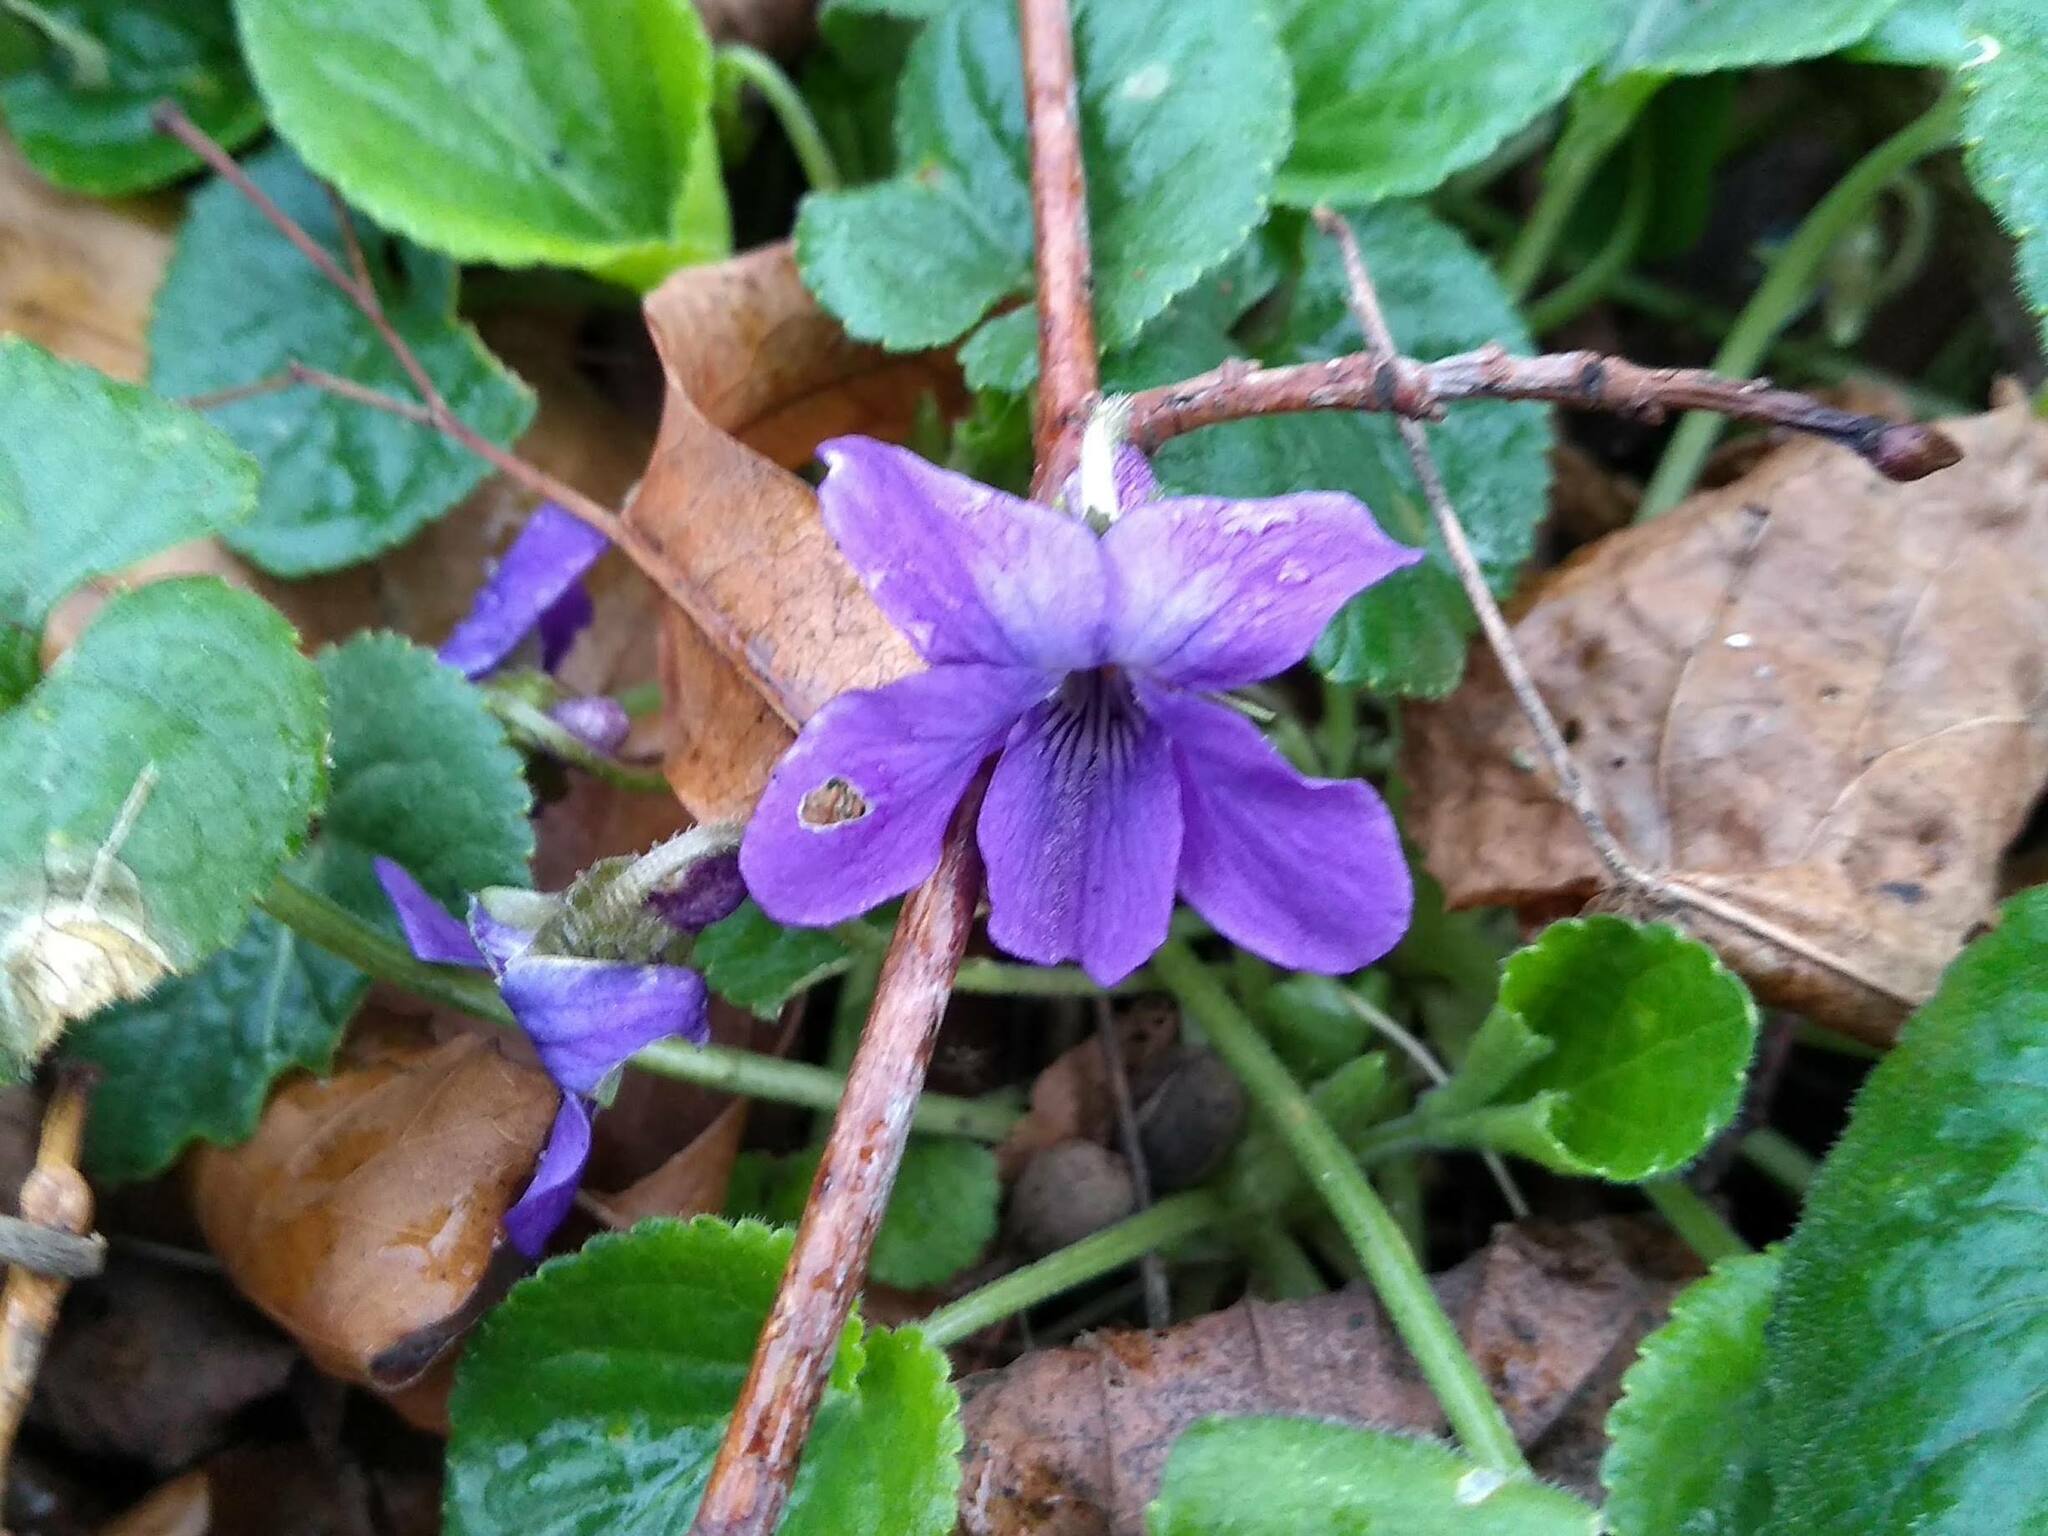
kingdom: Plantae
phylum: Tracheophyta
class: Magnoliopsida
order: Malpighiales
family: Violaceae
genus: Viola
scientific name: Viola odorata
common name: Sweet violet
